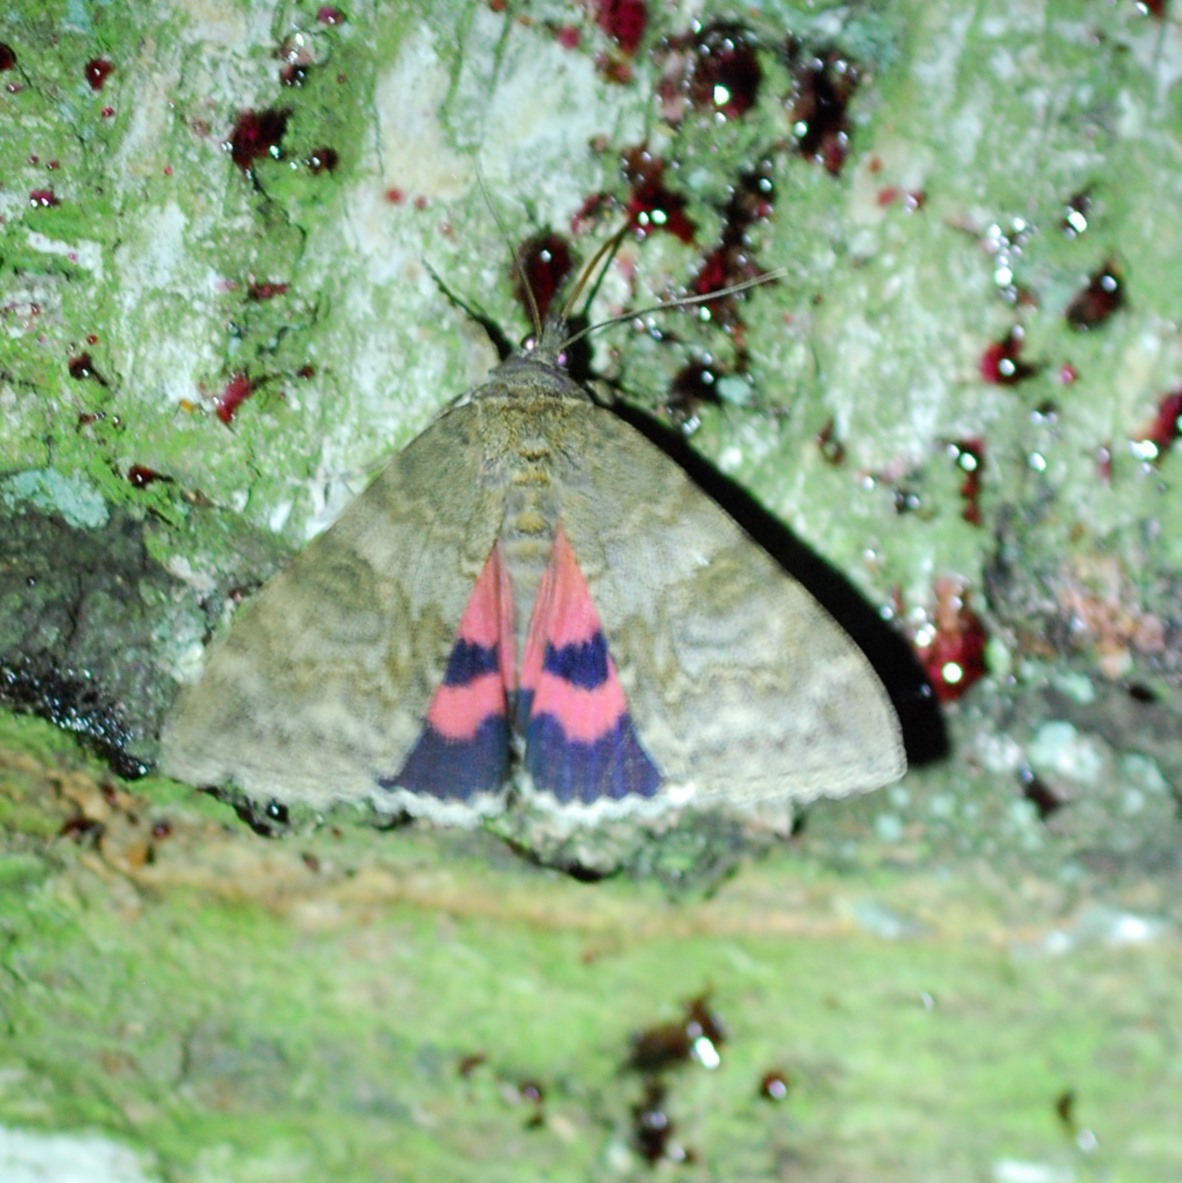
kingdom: Animalia
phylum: Arthropoda
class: Insecta
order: Lepidoptera
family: Erebidae
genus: Catocala
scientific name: Catocala nupta
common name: Red underwing
